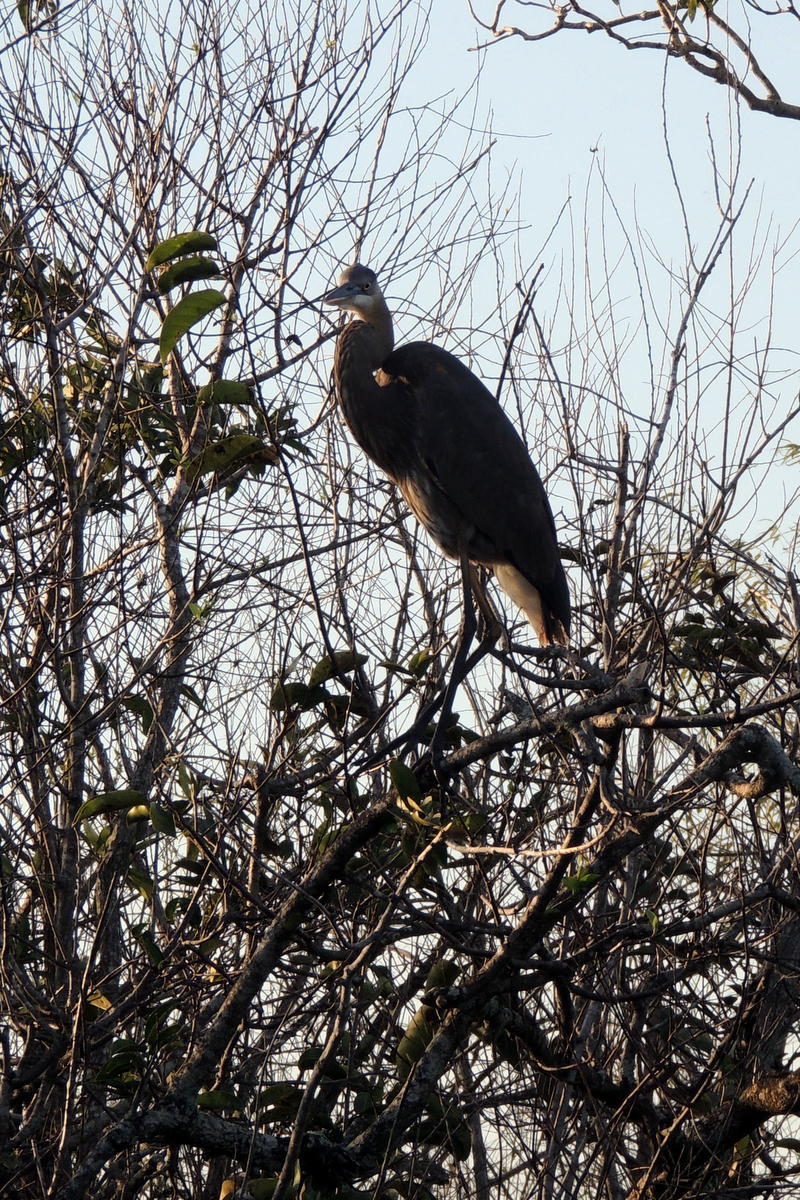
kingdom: Animalia
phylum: Chordata
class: Aves
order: Pelecaniformes
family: Ardeidae
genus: Ardea
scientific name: Ardea herodias
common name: Great blue heron
